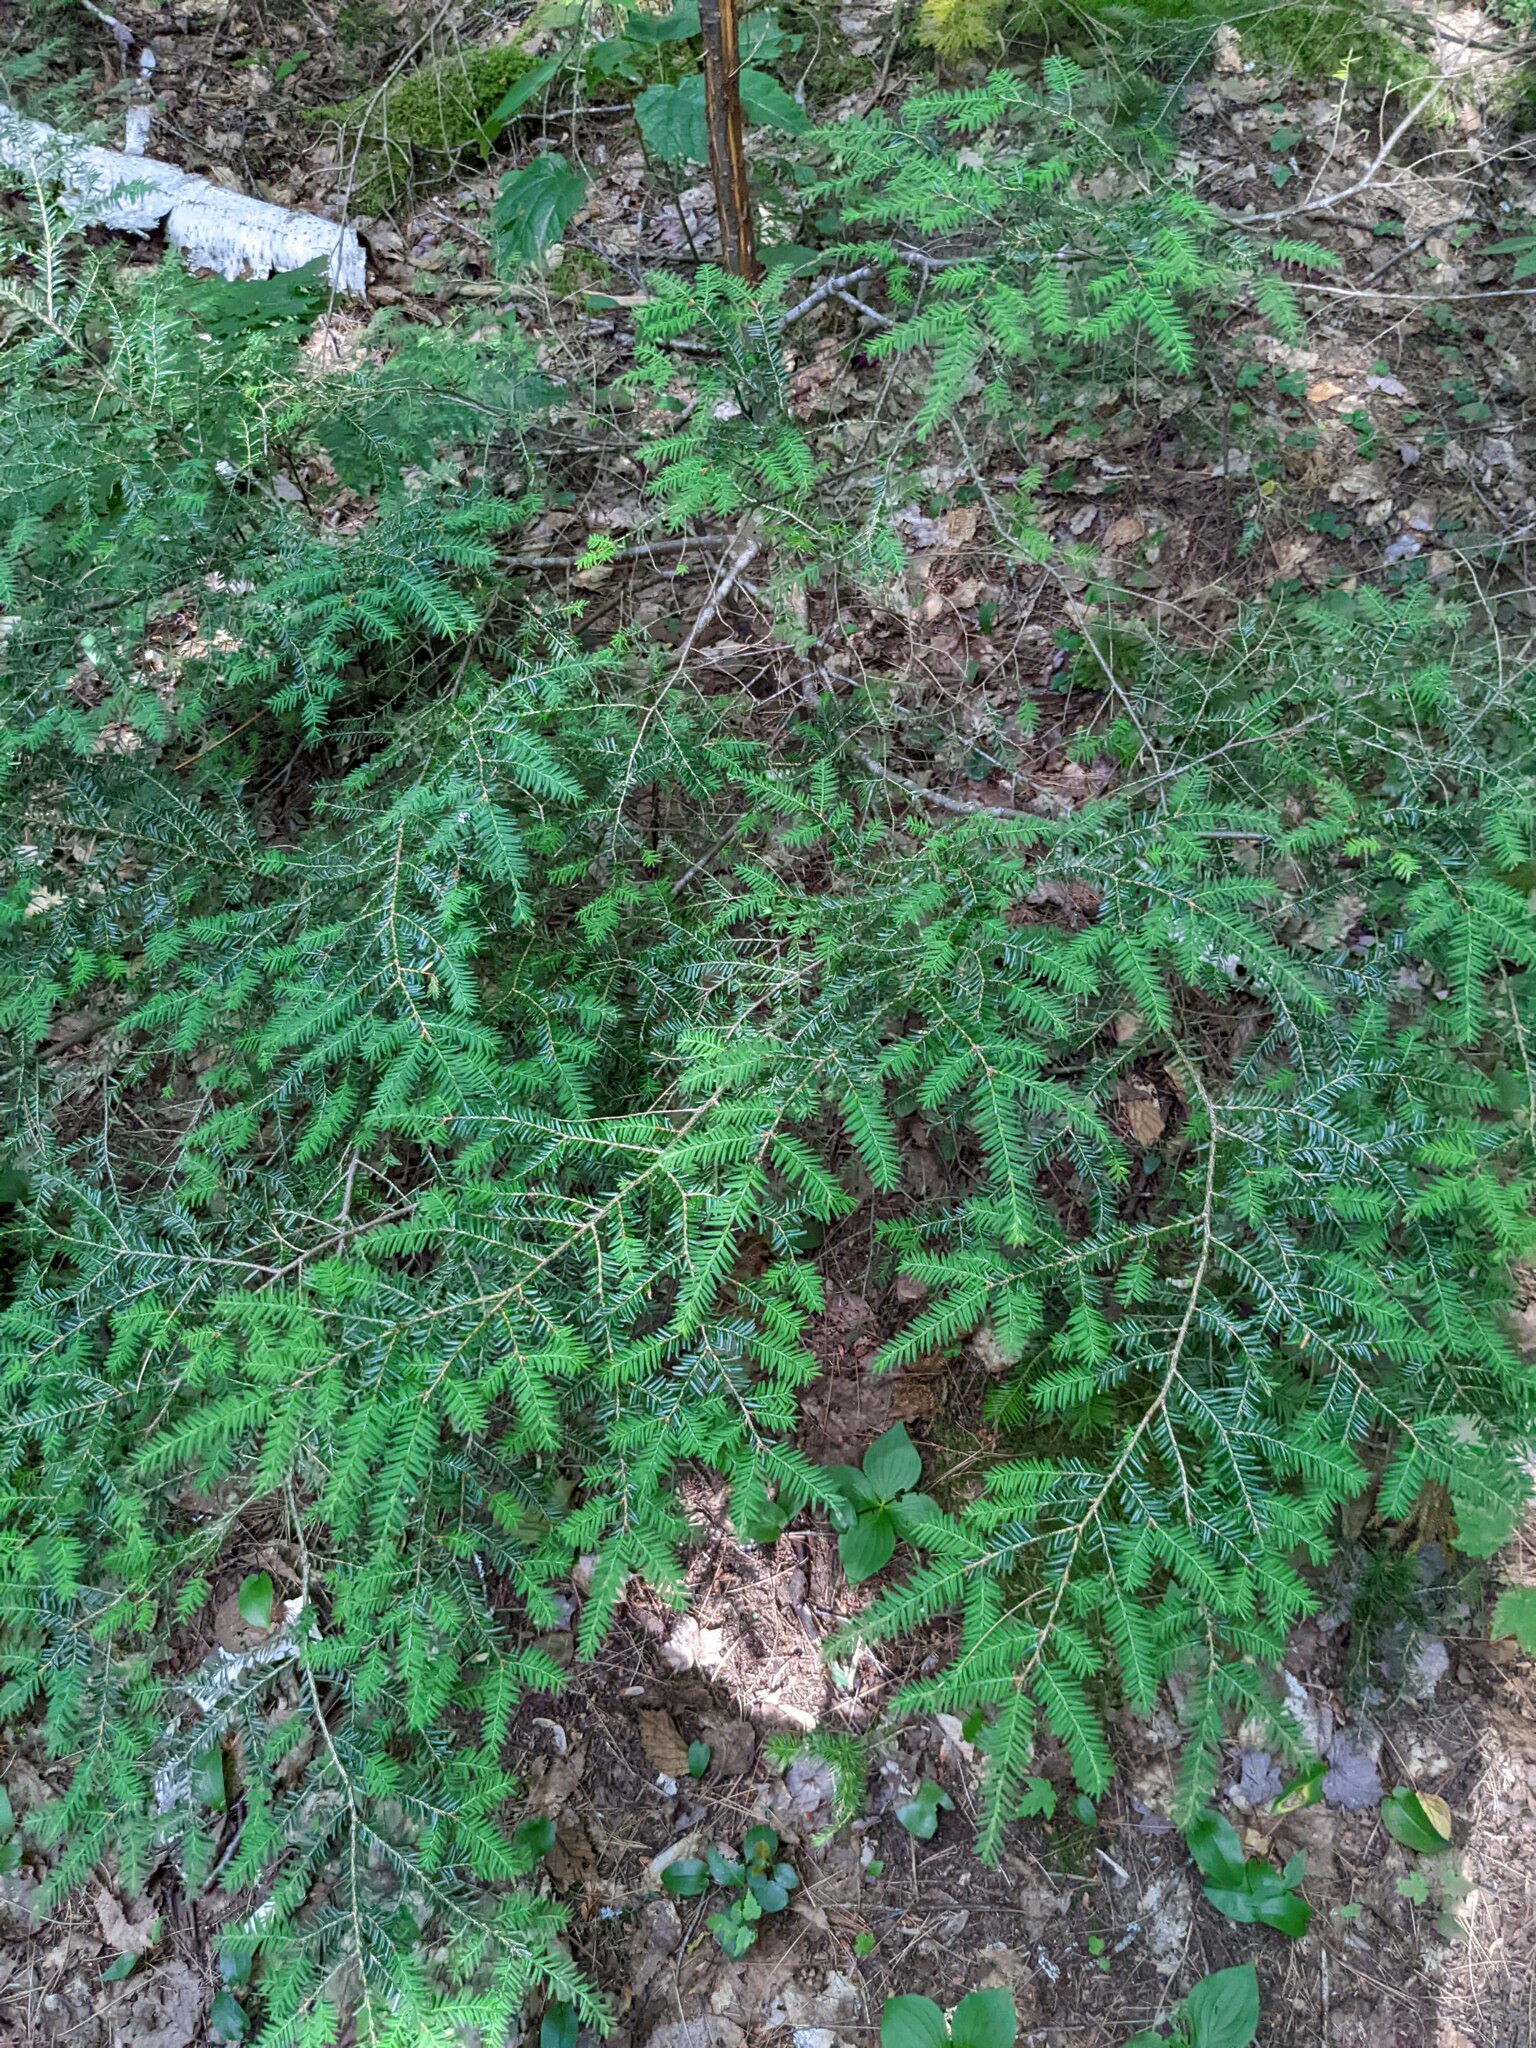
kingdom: Plantae
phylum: Tracheophyta
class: Pinopsida
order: Pinales
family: Pinaceae
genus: Tsuga
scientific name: Tsuga canadensis
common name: Eastern hemlock
